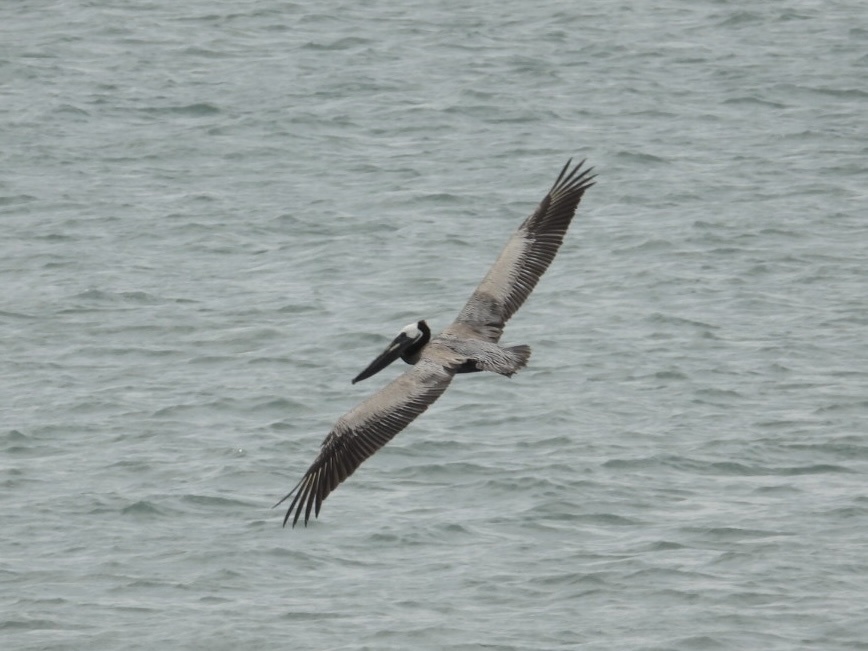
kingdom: Animalia
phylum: Chordata
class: Aves
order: Pelecaniformes
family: Pelecanidae
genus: Pelecanus
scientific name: Pelecanus occidentalis
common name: Brown pelican
